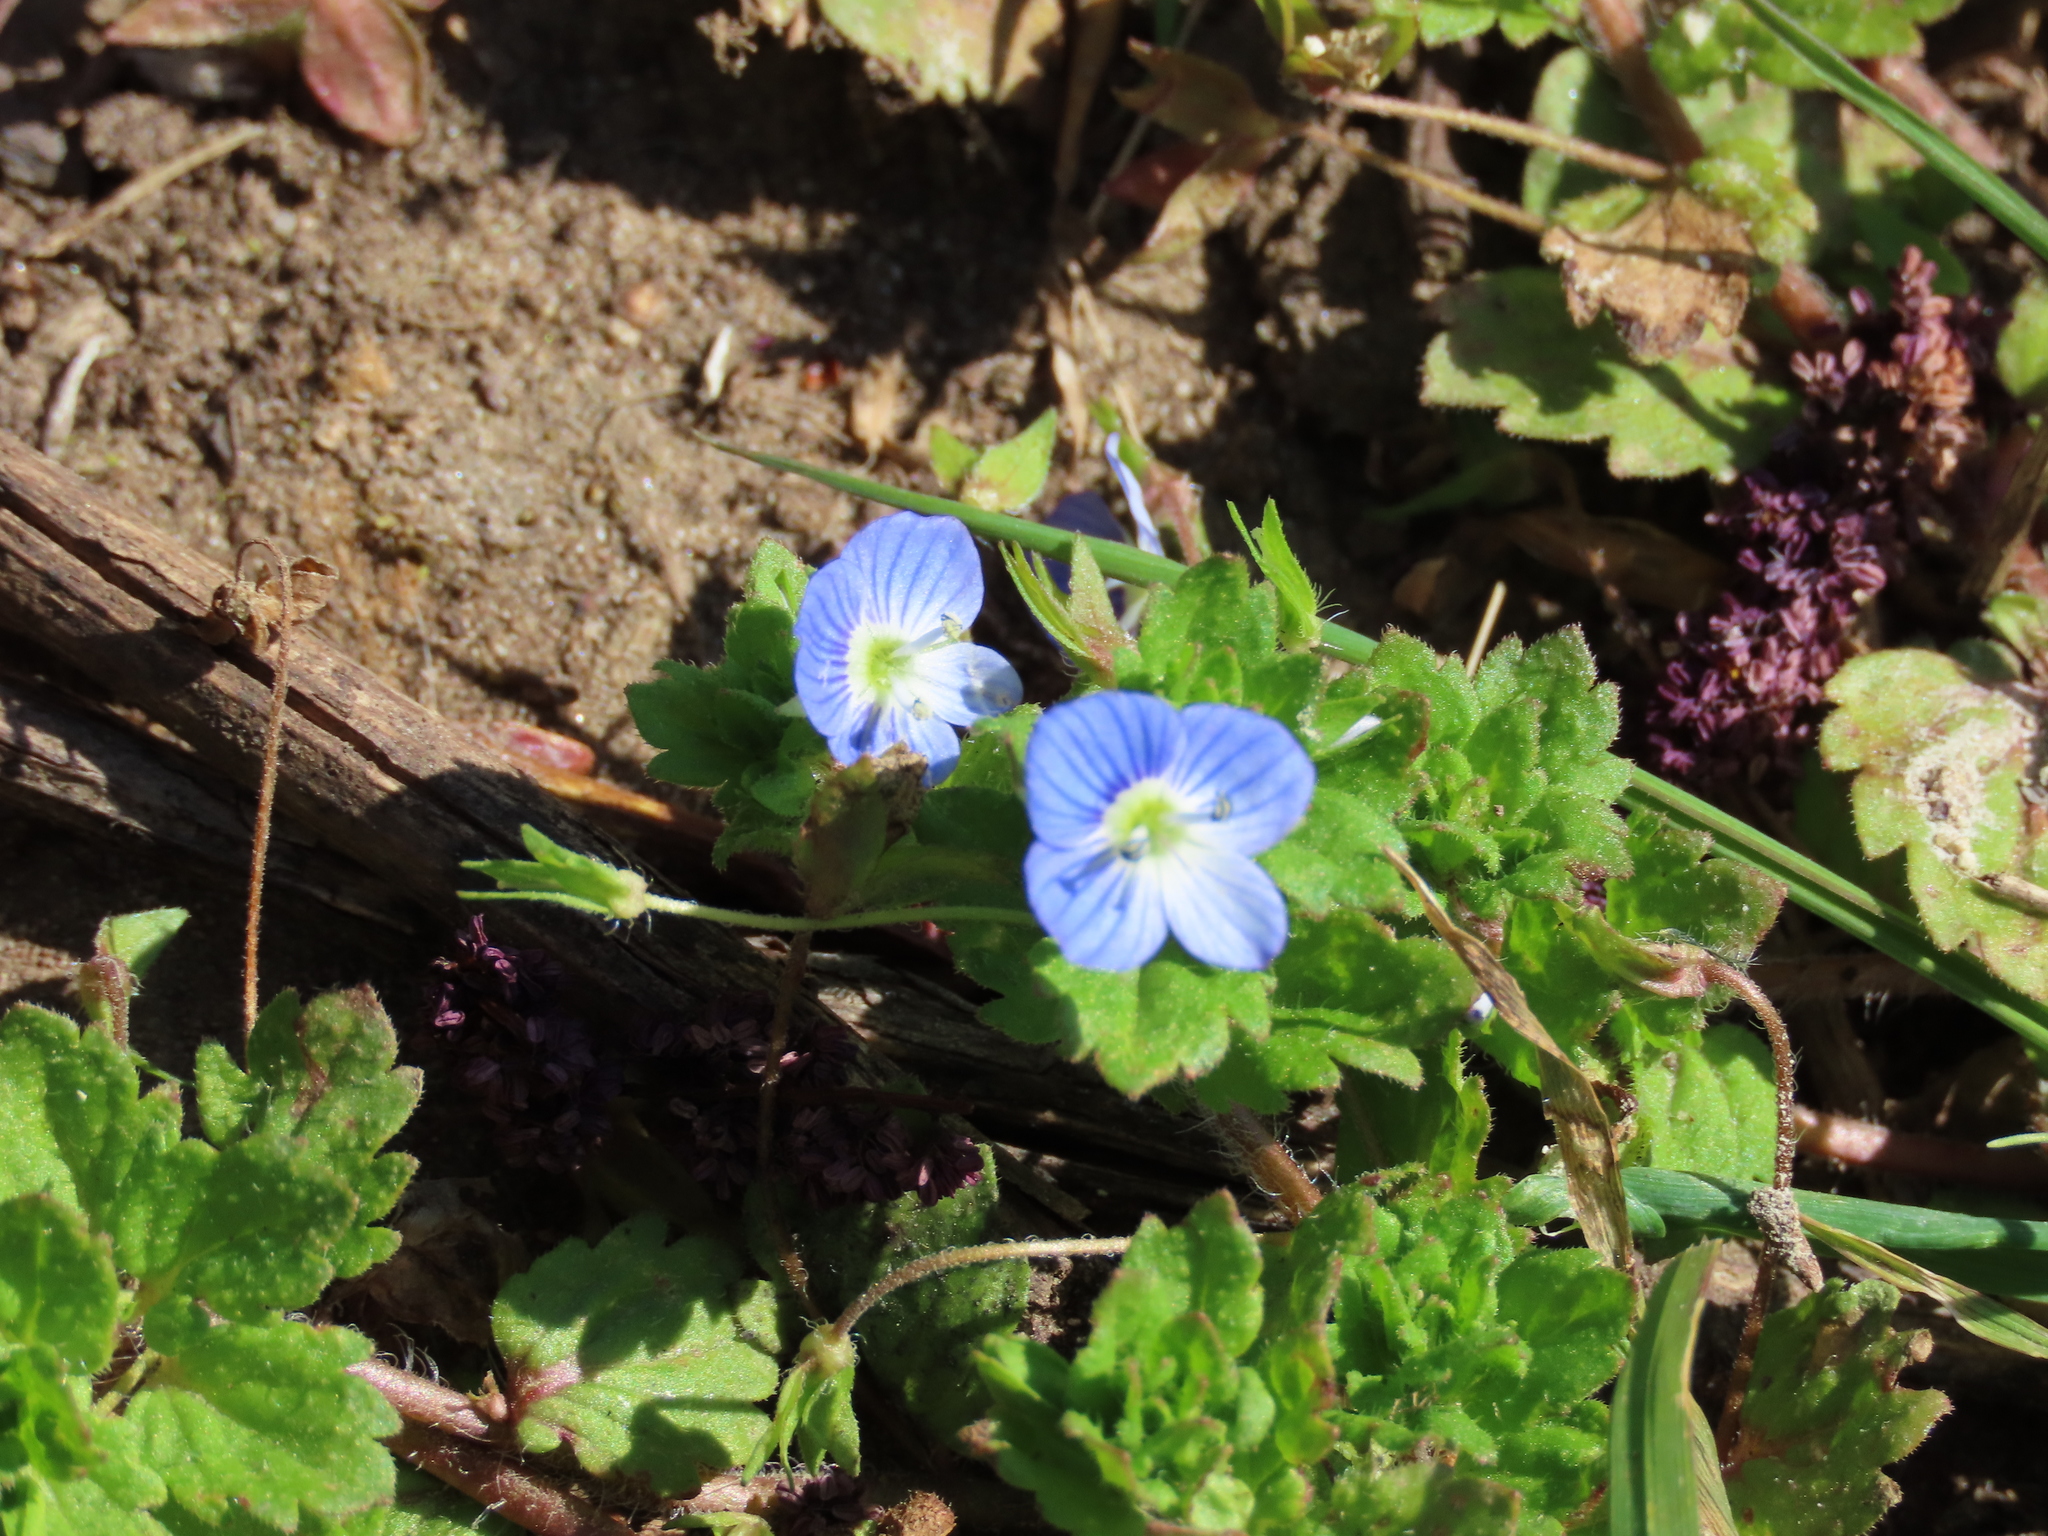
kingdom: Plantae
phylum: Tracheophyta
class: Magnoliopsida
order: Lamiales
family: Plantaginaceae
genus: Veronica
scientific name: Veronica persica
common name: Common field-speedwell
